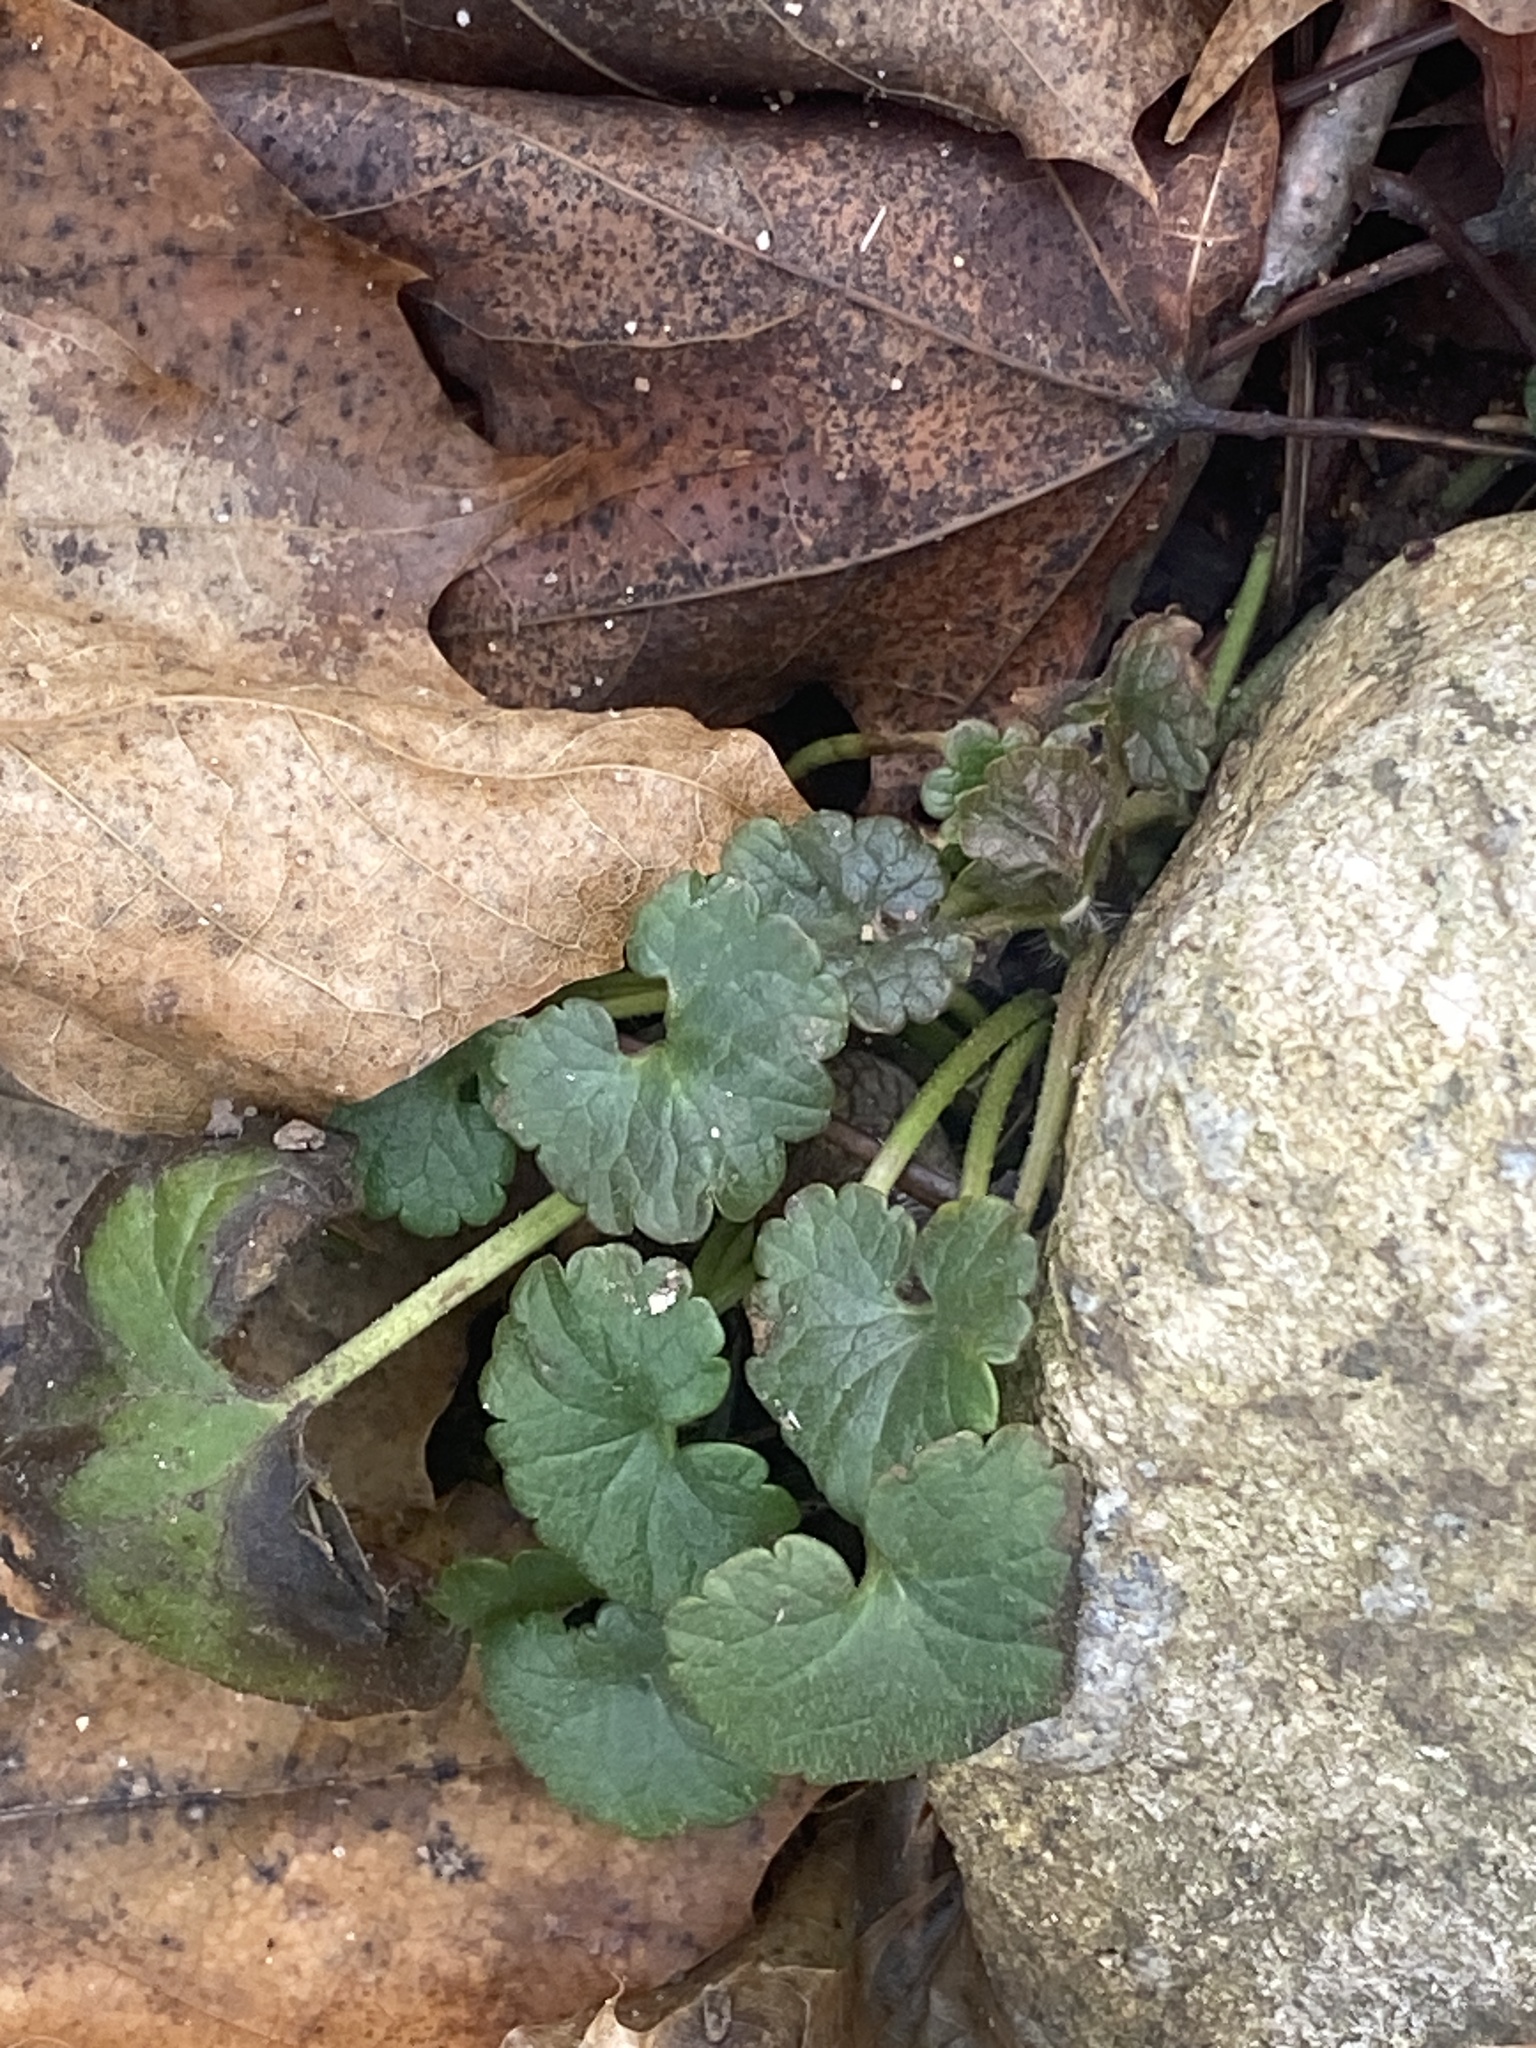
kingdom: Plantae
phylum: Tracheophyta
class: Magnoliopsida
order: Lamiales
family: Lamiaceae
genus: Glechoma
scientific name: Glechoma hederacea
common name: Ground ivy
